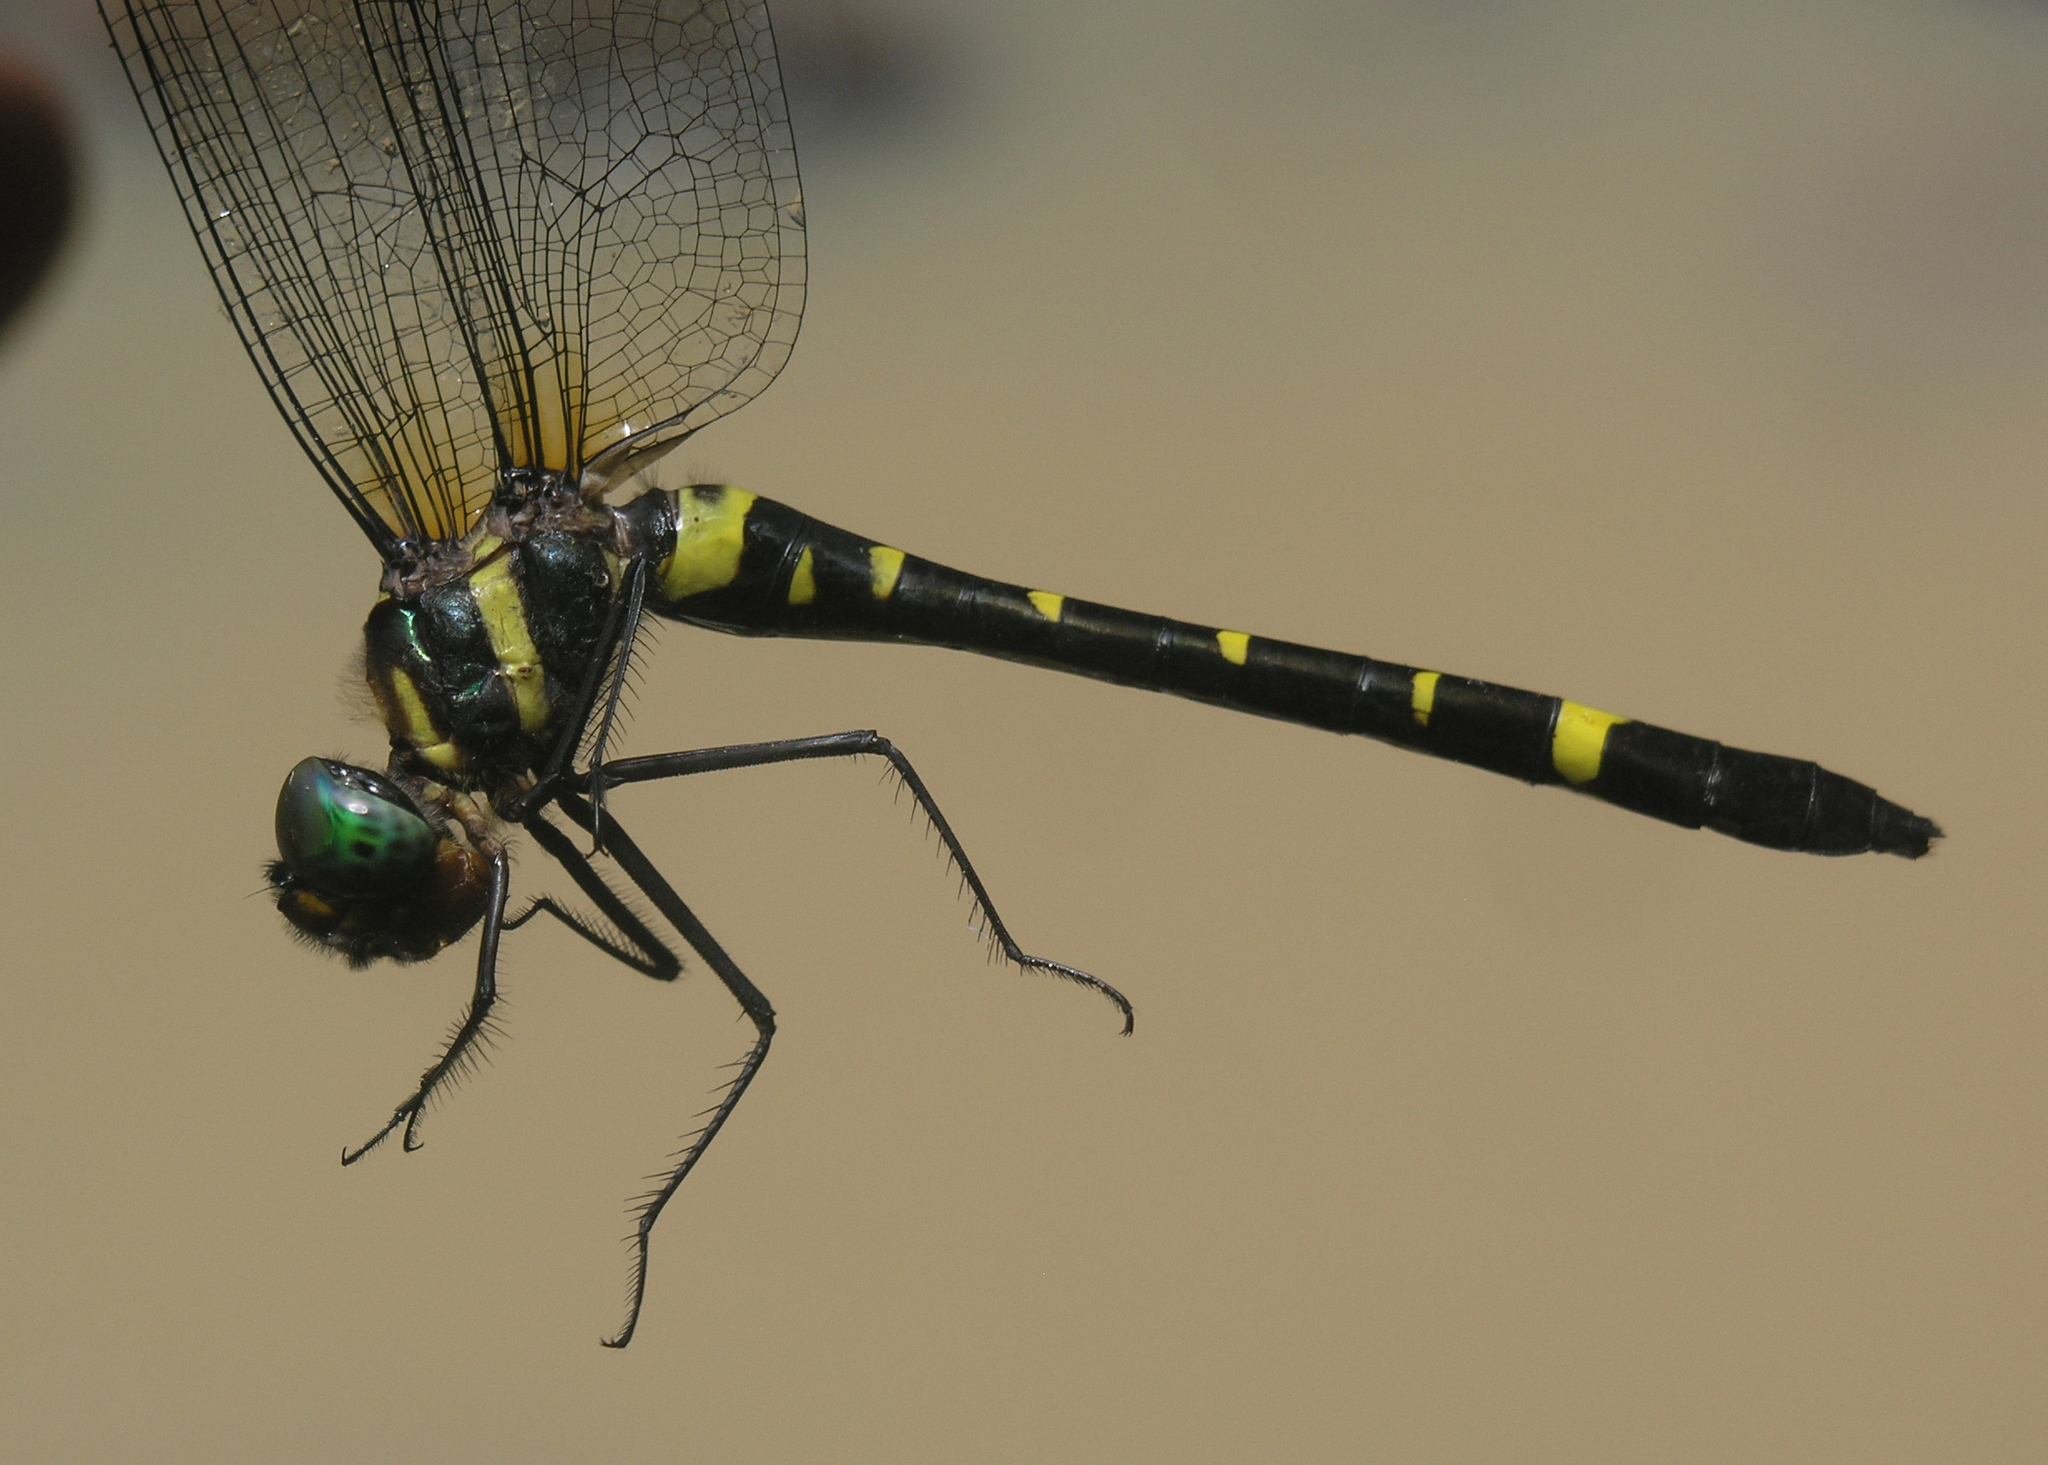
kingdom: Animalia
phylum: Arthropoda
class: Insecta
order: Odonata
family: Macromiidae
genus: Macromia
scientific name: Macromia septima
